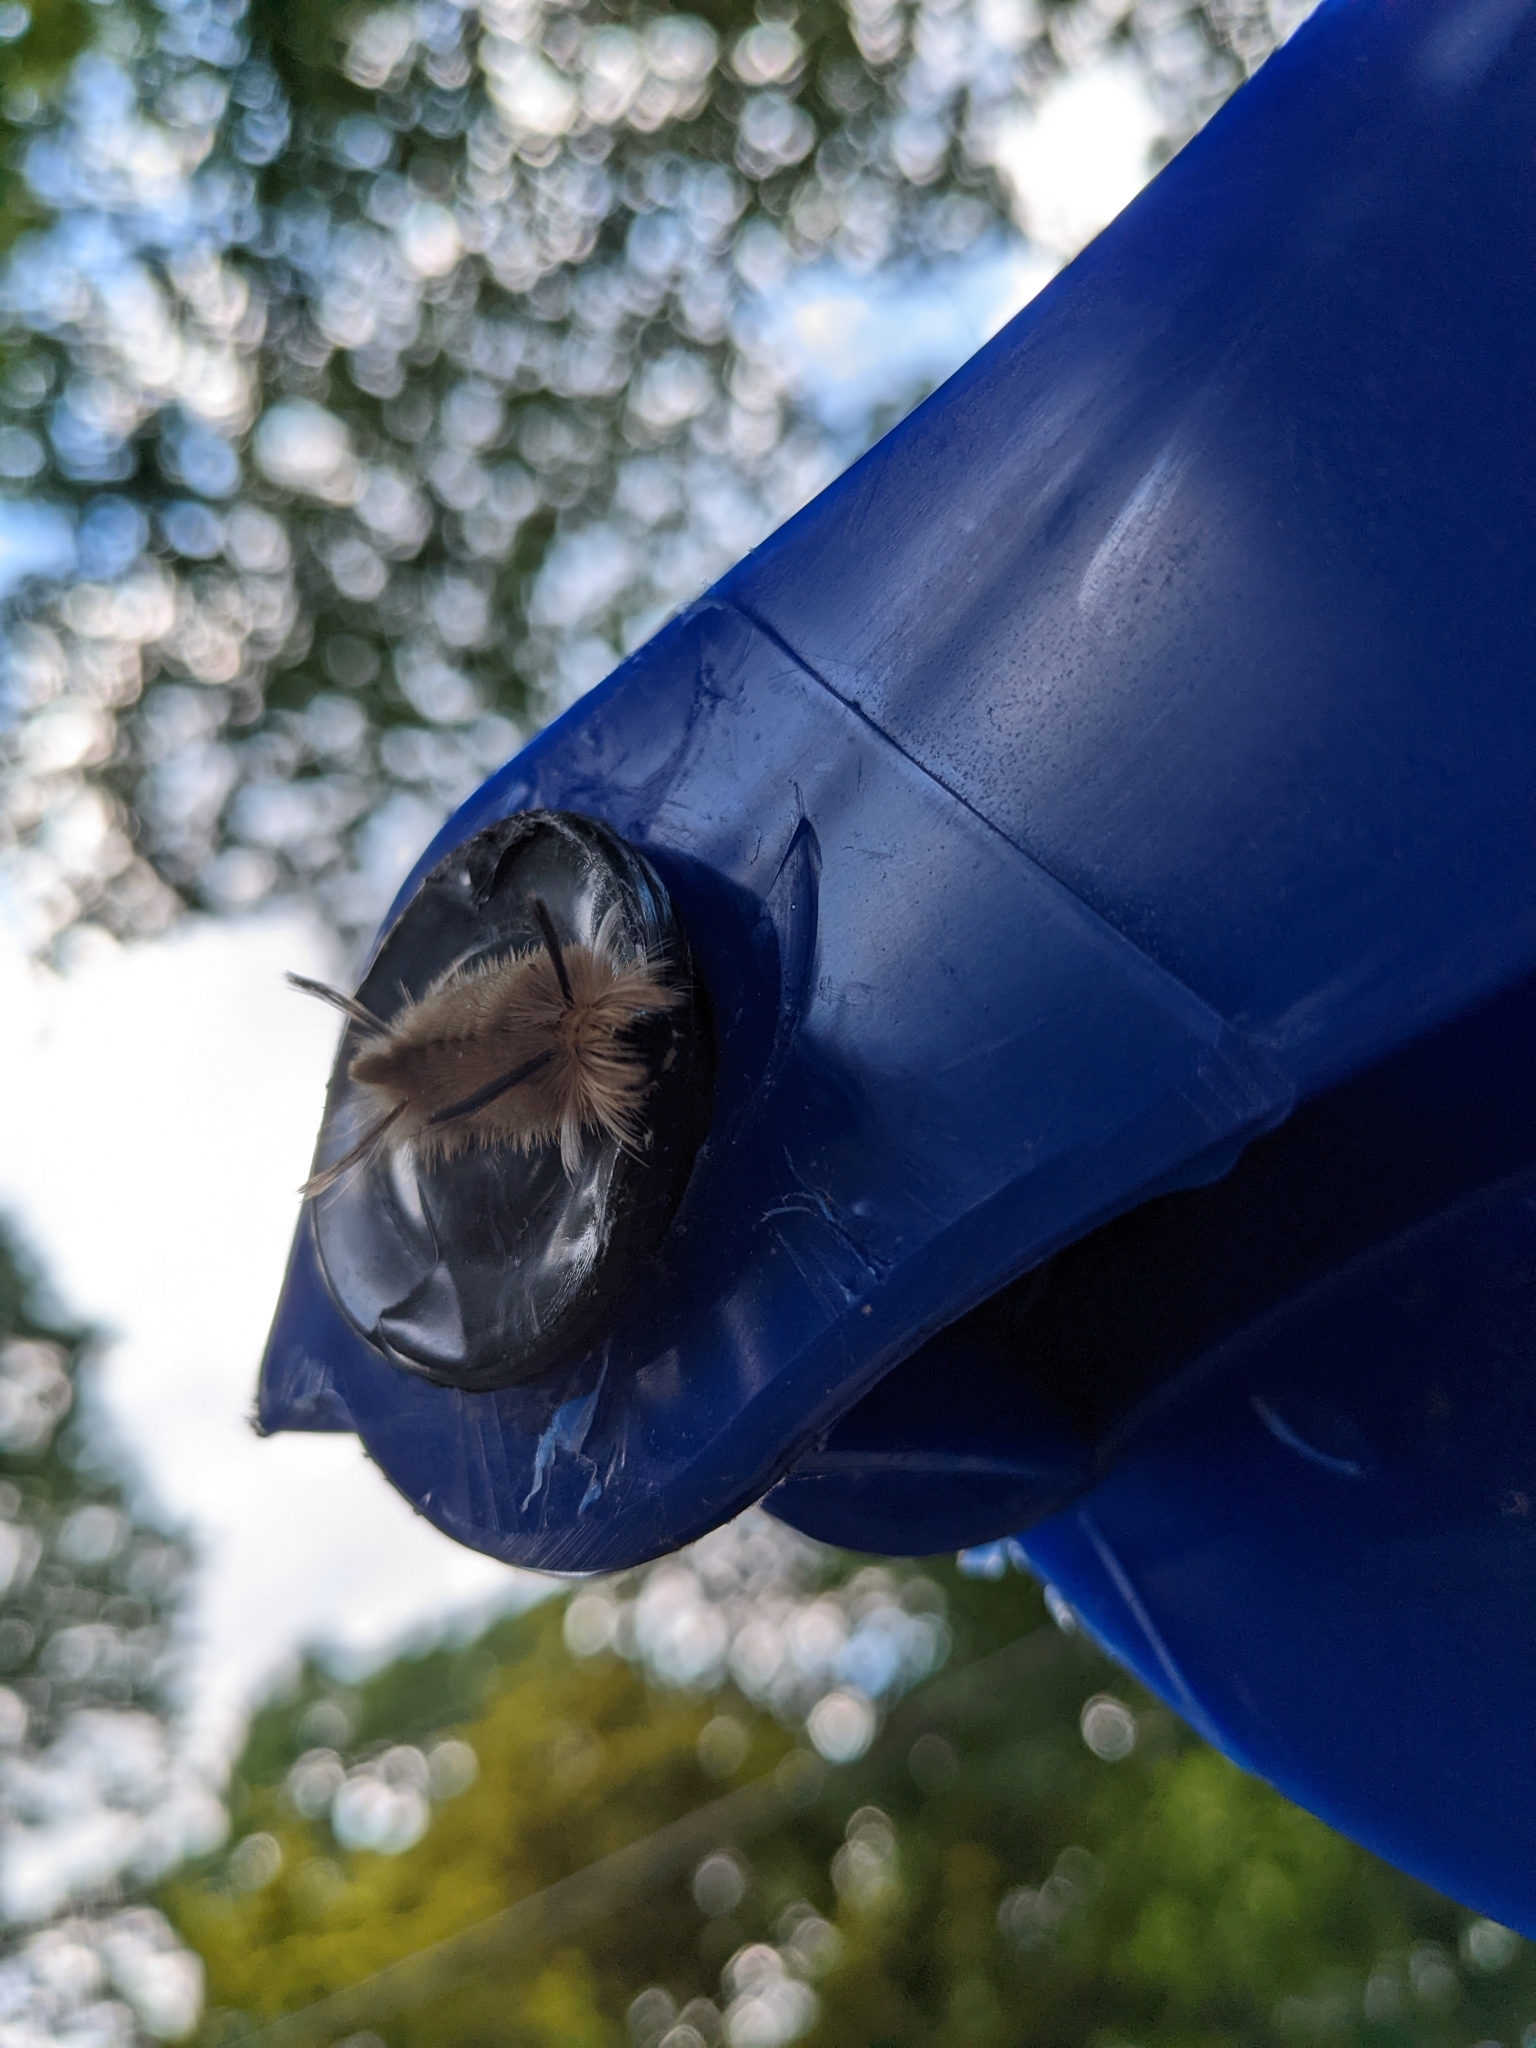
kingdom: Animalia
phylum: Arthropoda
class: Insecta
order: Lepidoptera
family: Erebidae
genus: Halysidota
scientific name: Halysidota tessellaris
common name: Banded tussock moth
